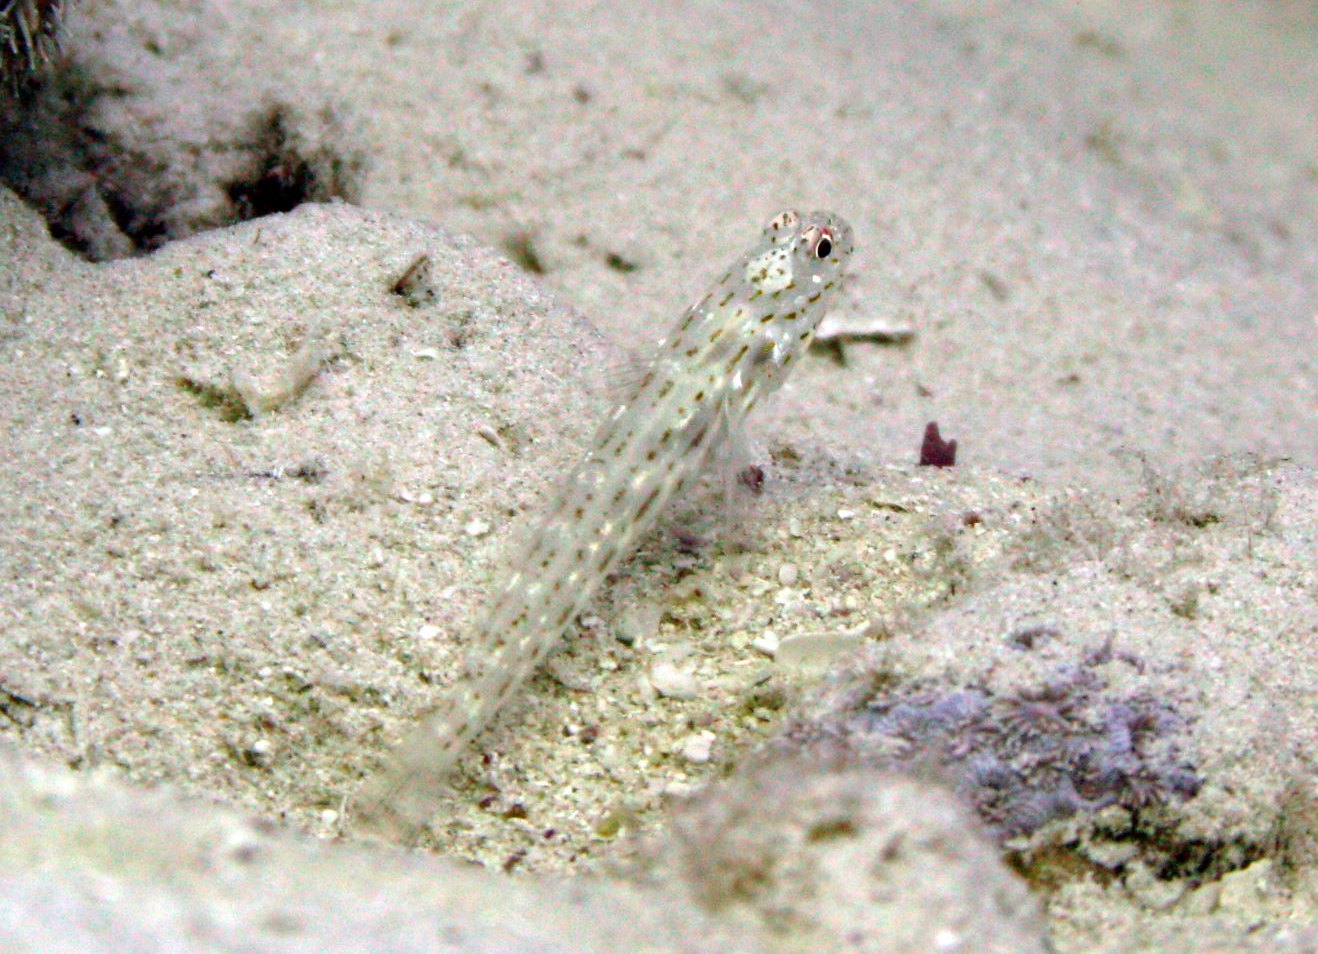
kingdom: Animalia
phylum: Chordata
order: Perciformes
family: Gobiidae
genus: Ctenogobiops
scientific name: Ctenogobiops crocineus
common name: Silverspot shrimpgoby
